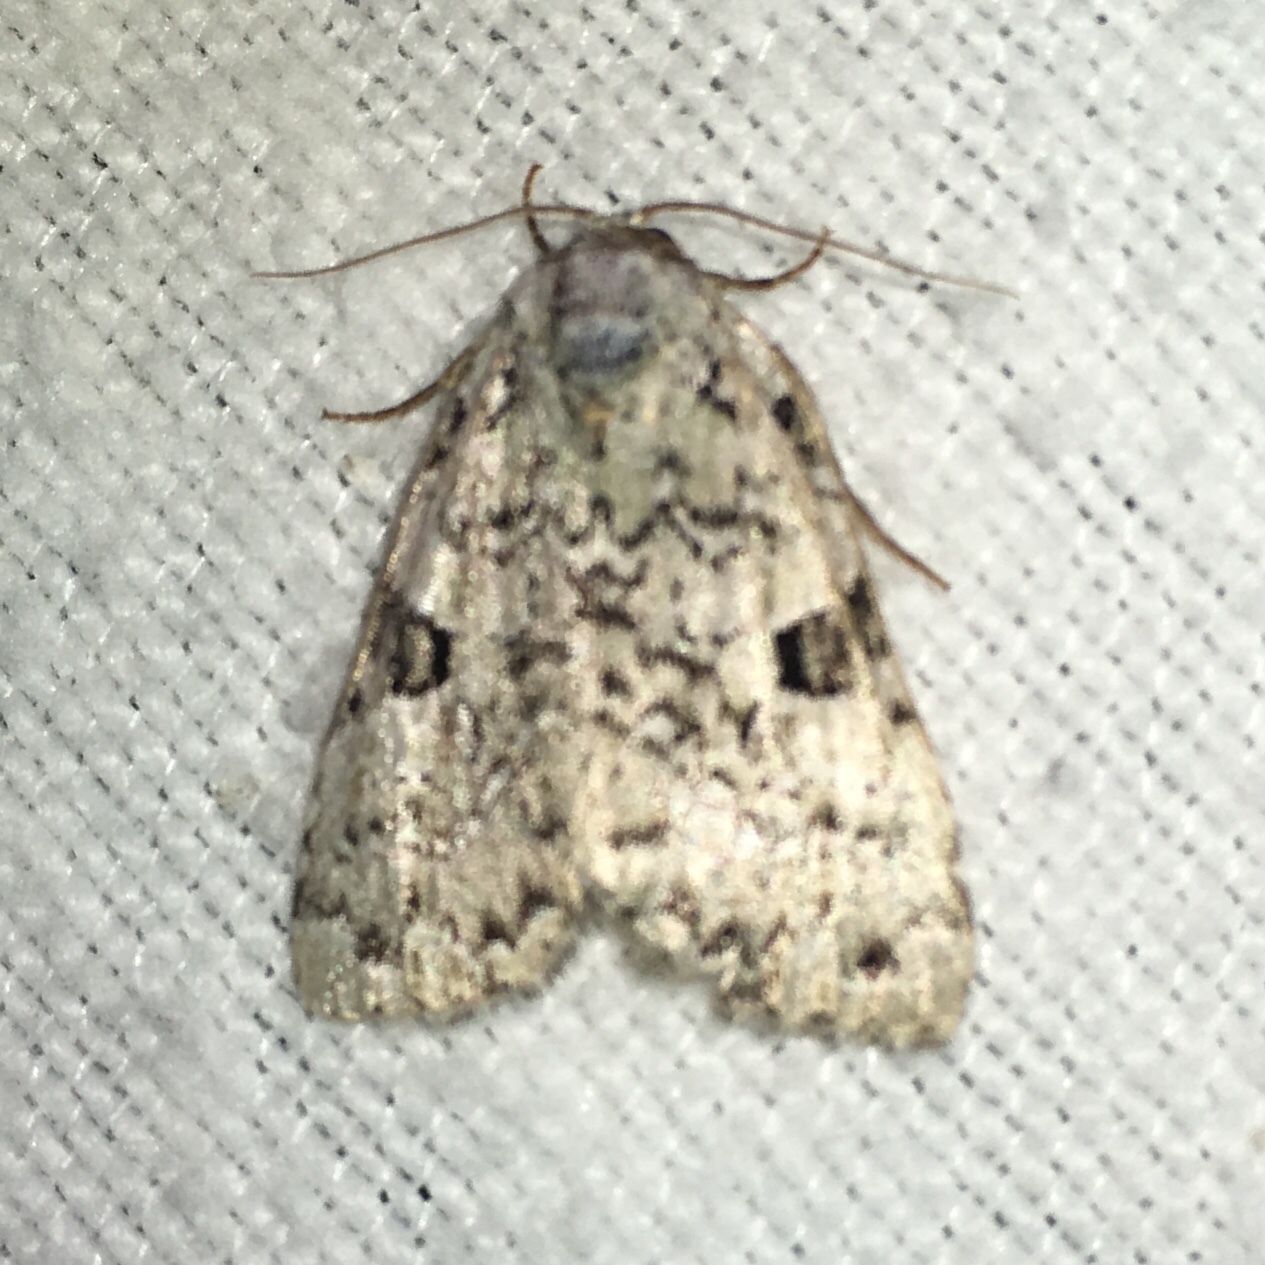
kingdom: Animalia
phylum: Arthropoda
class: Insecta
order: Lepidoptera
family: Noctuidae
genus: Leuconycta
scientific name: Leuconycta diphteroides
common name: Green leuconycta moth
